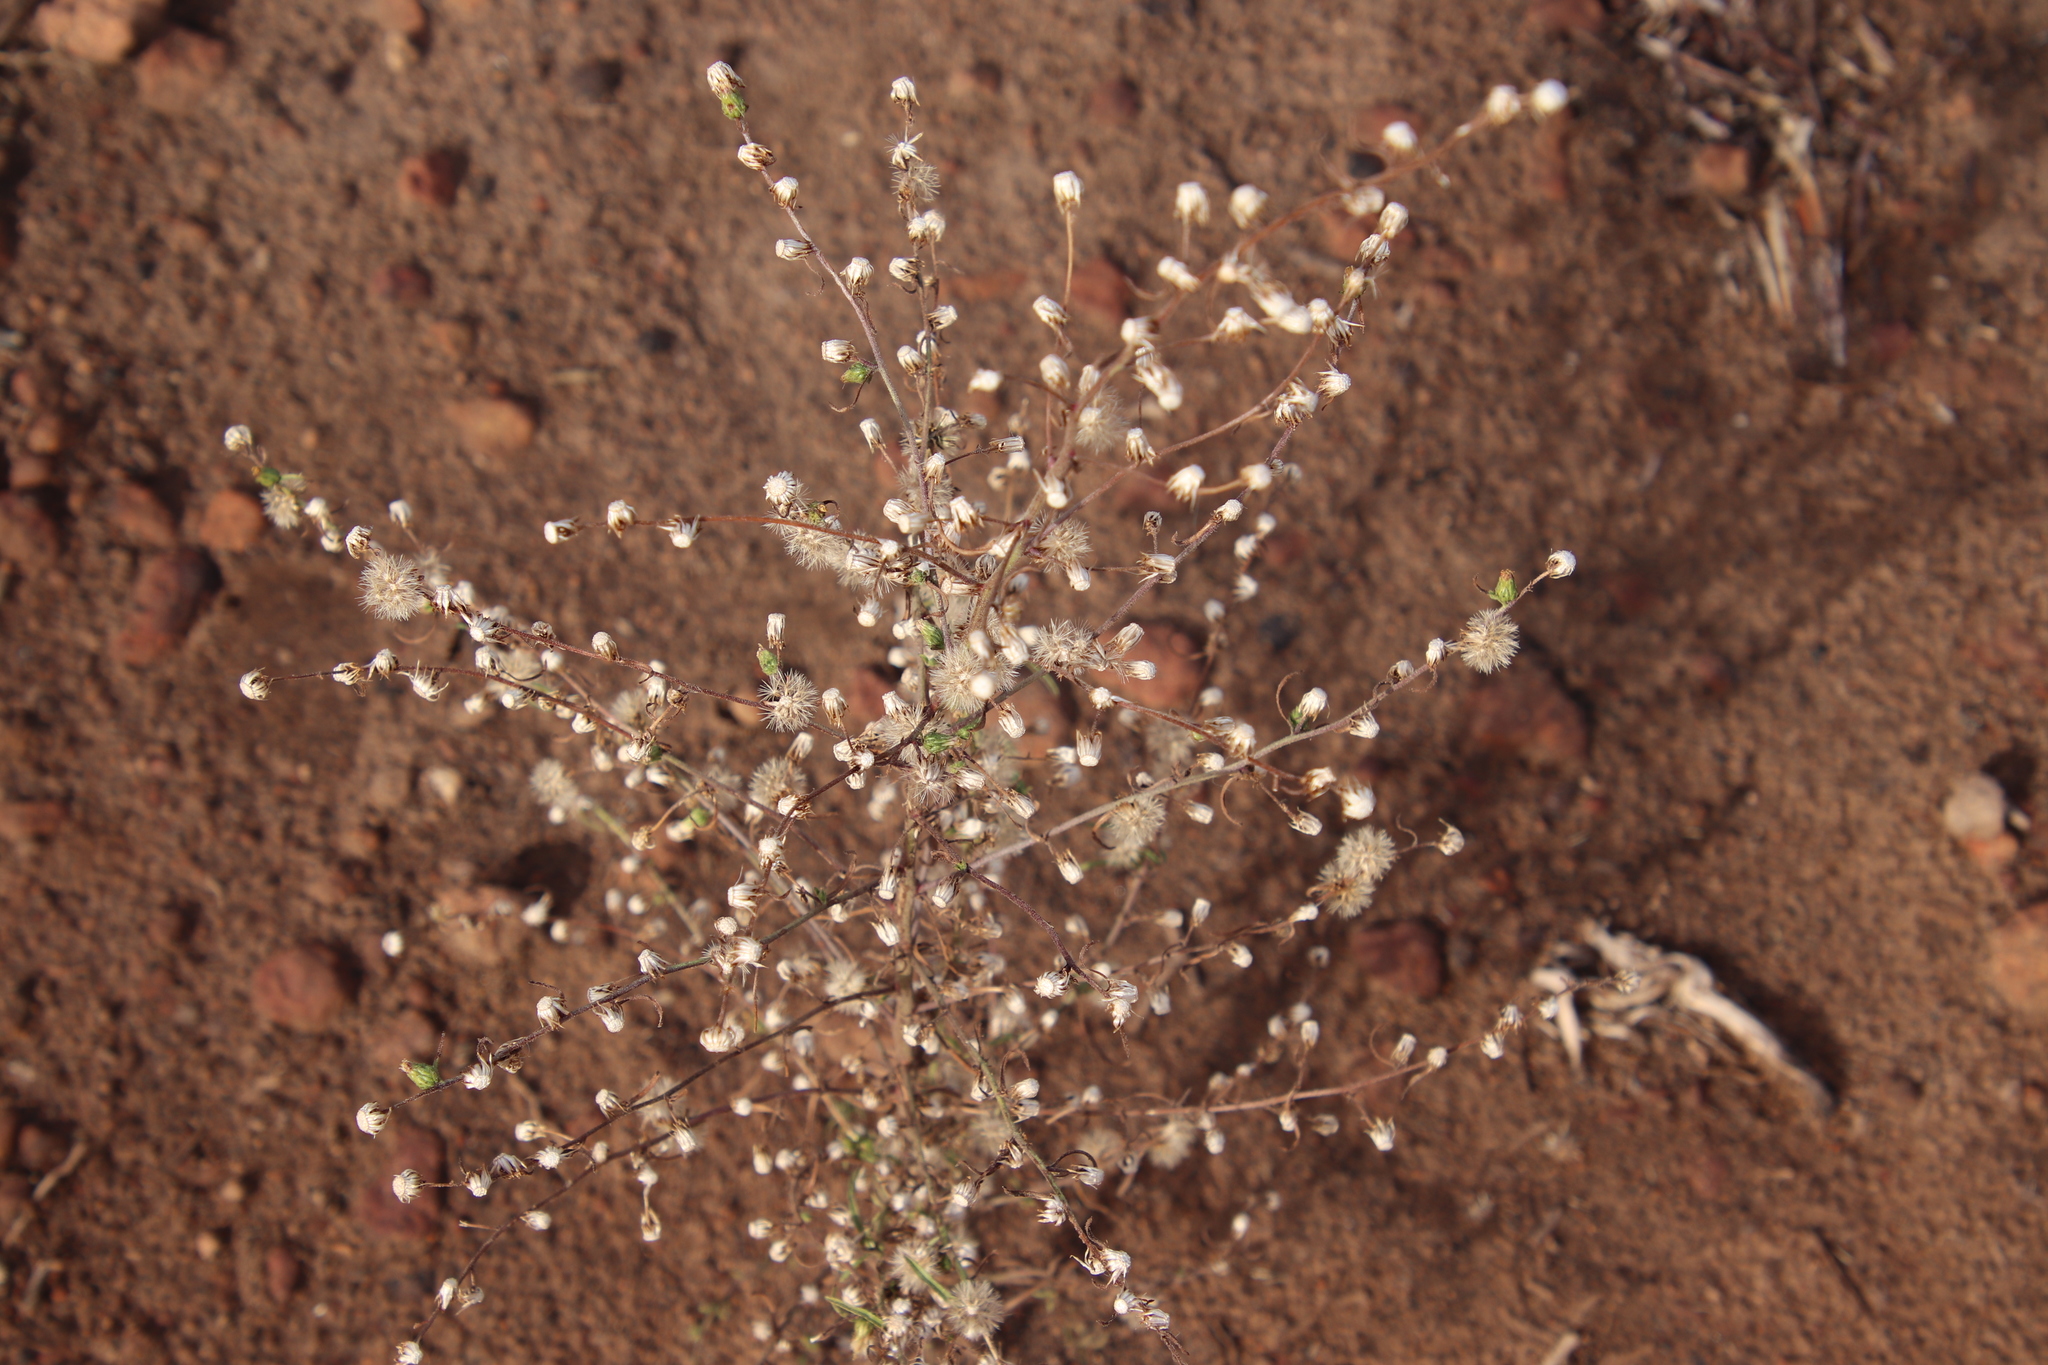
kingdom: Plantae
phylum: Tracheophyta
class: Magnoliopsida
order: Asterales
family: Asteraceae
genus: Dittrichia
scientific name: Dittrichia graveolens
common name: Stinking fleabane
